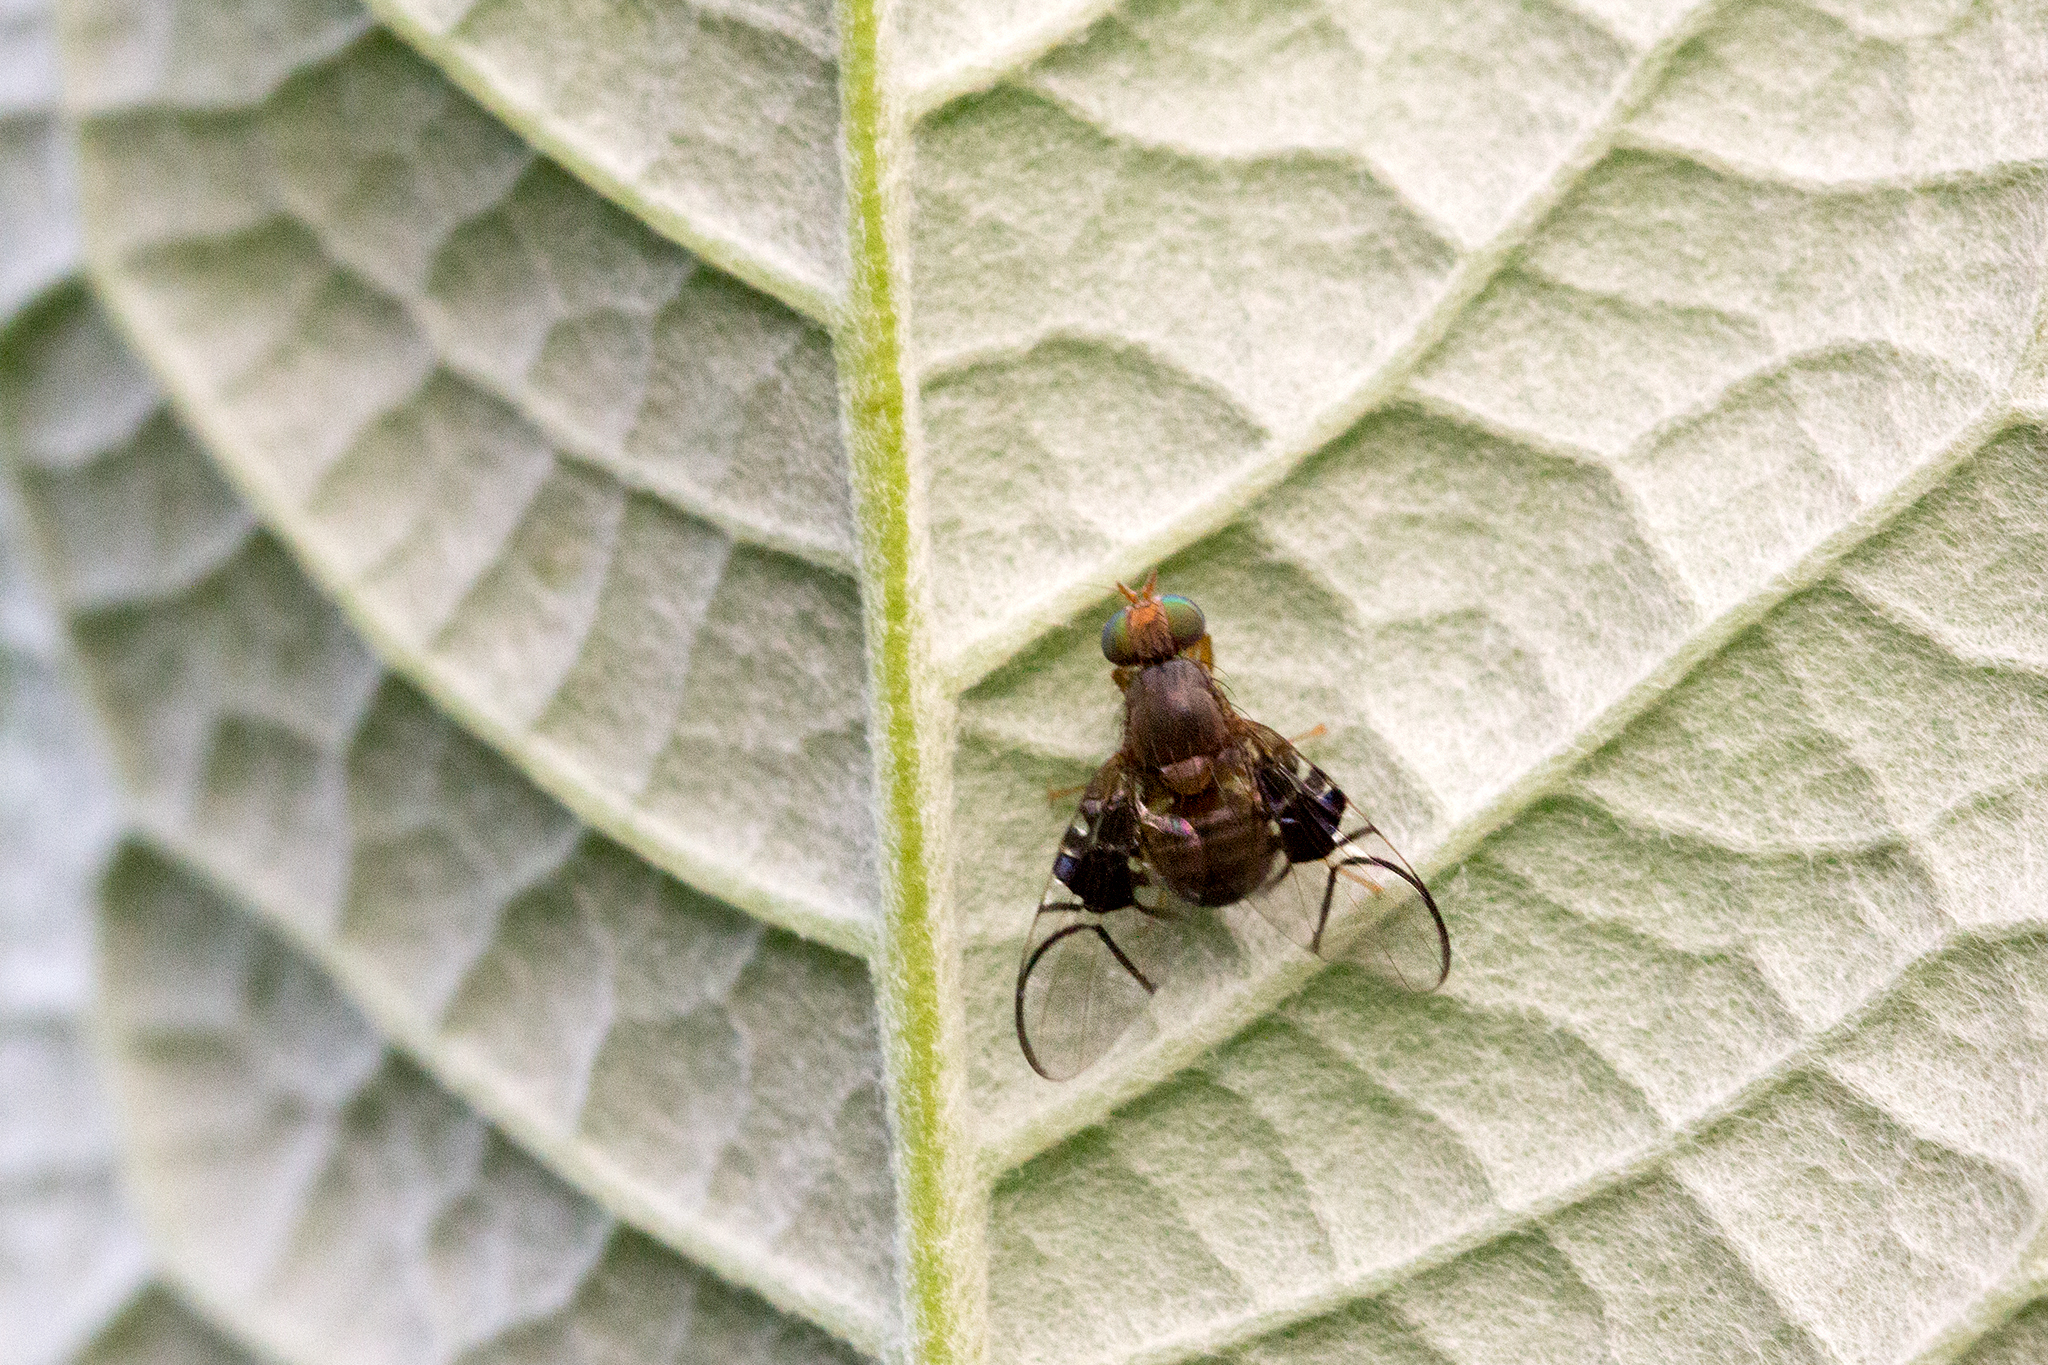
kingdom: Animalia
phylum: Arthropoda
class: Insecta
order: Diptera
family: Tephritidae
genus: Anomoia
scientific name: Anomoia purmunda
